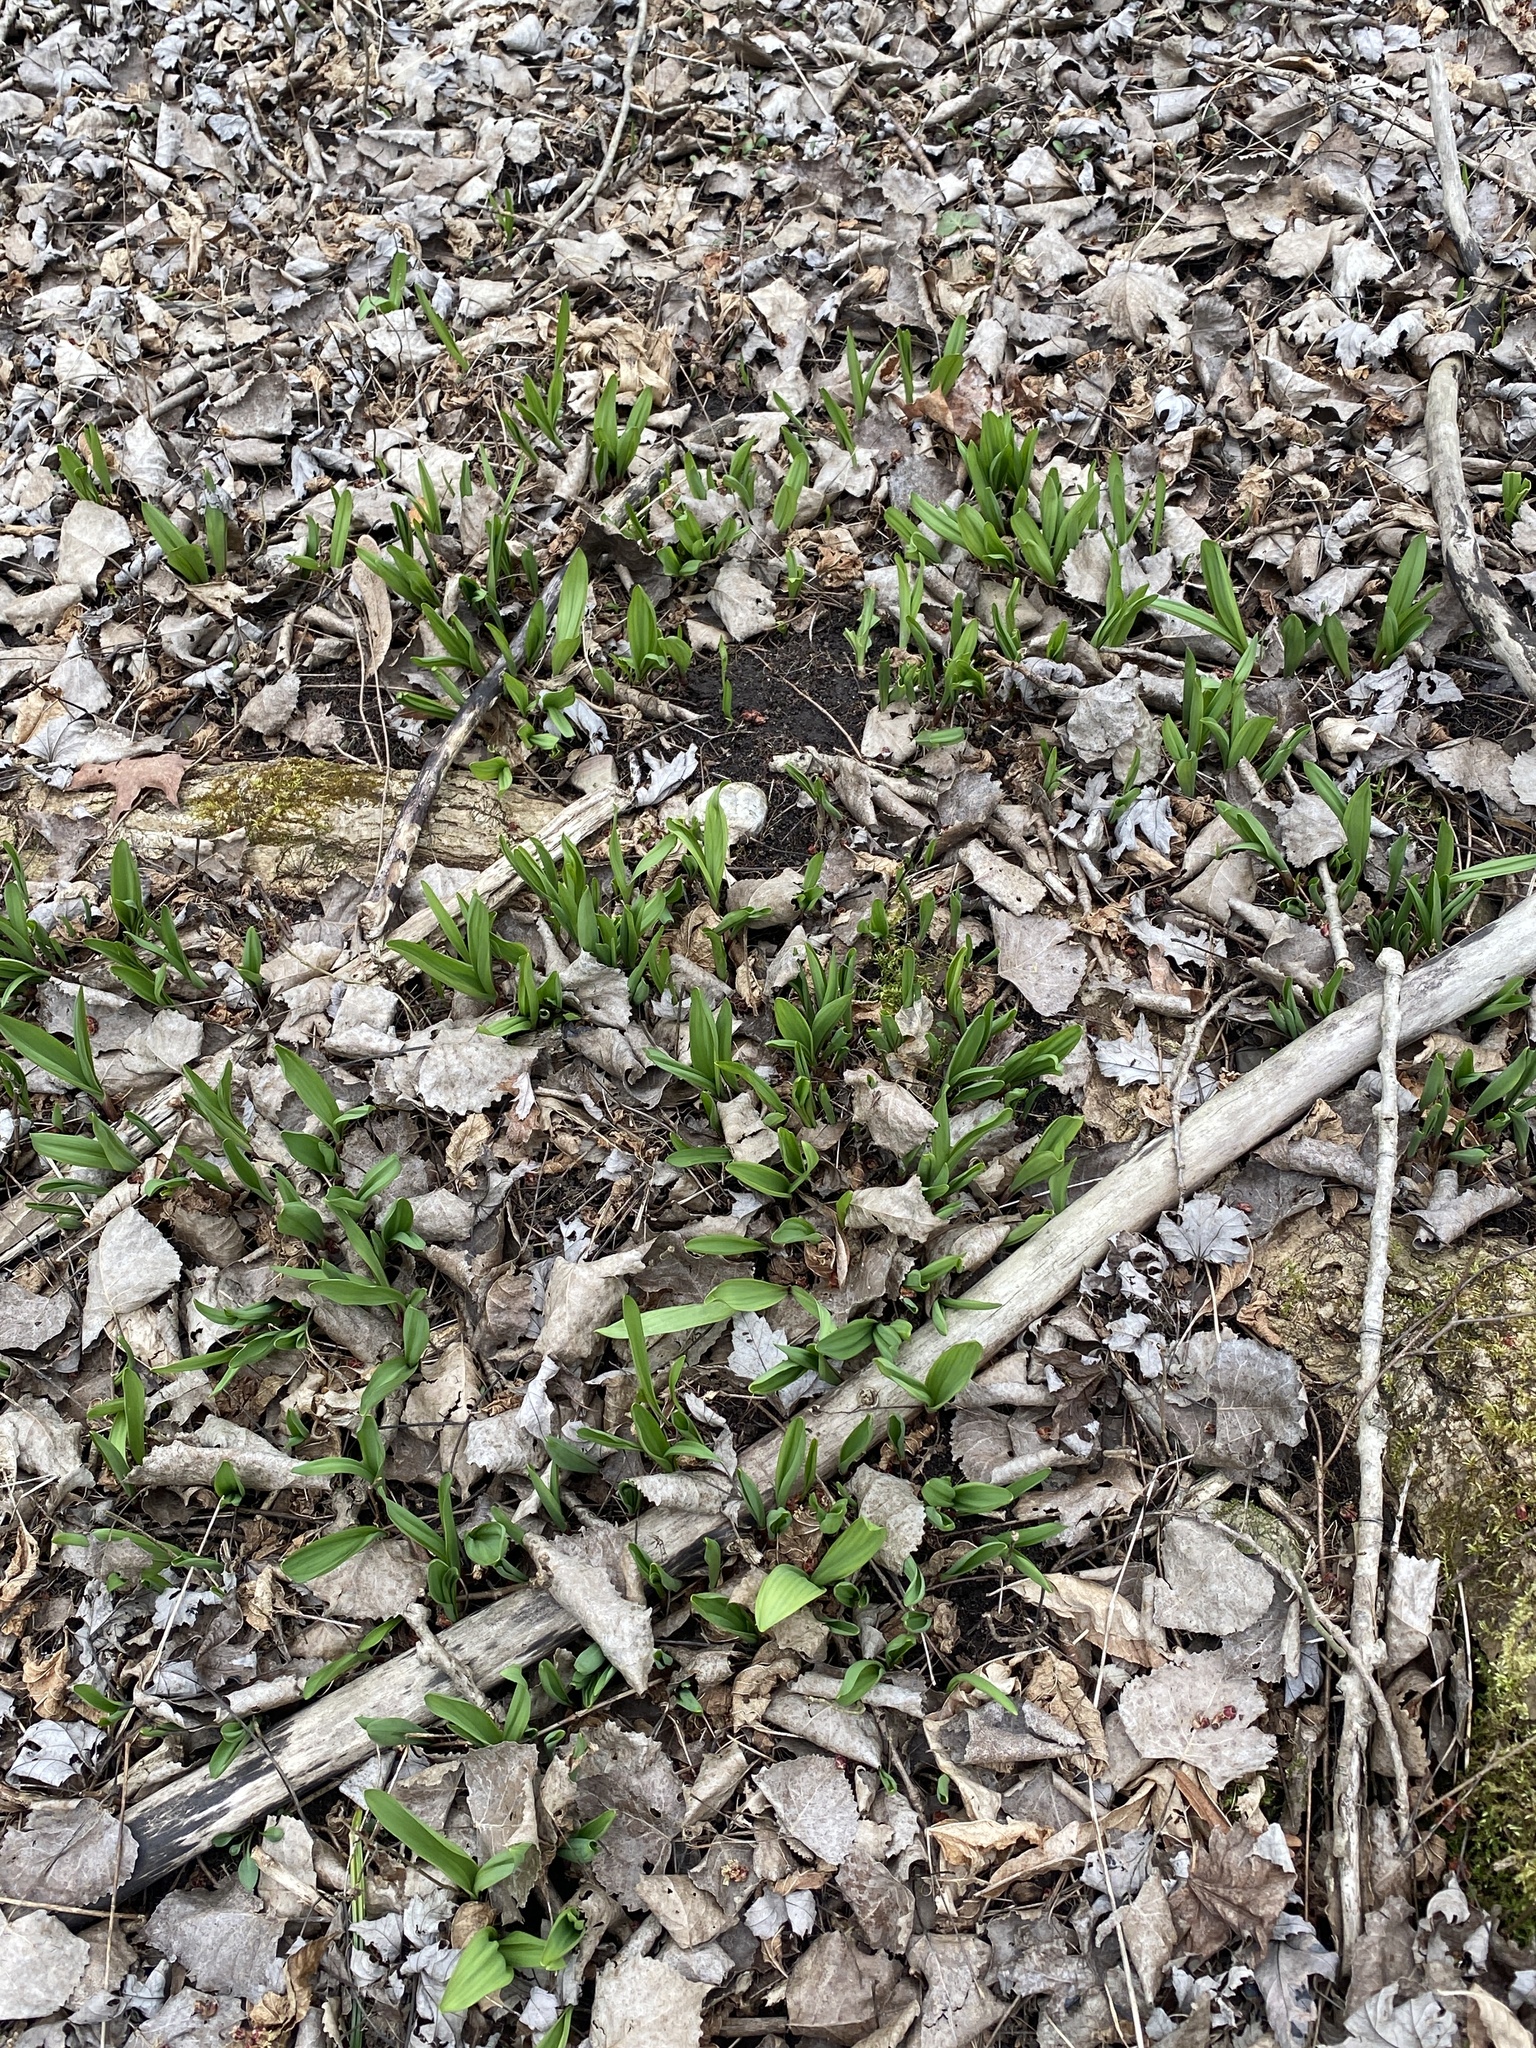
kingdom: Plantae
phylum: Tracheophyta
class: Liliopsida
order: Asparagales
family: Amaryllidaceae
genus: Allium
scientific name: Allium tricoccum
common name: Ramp
